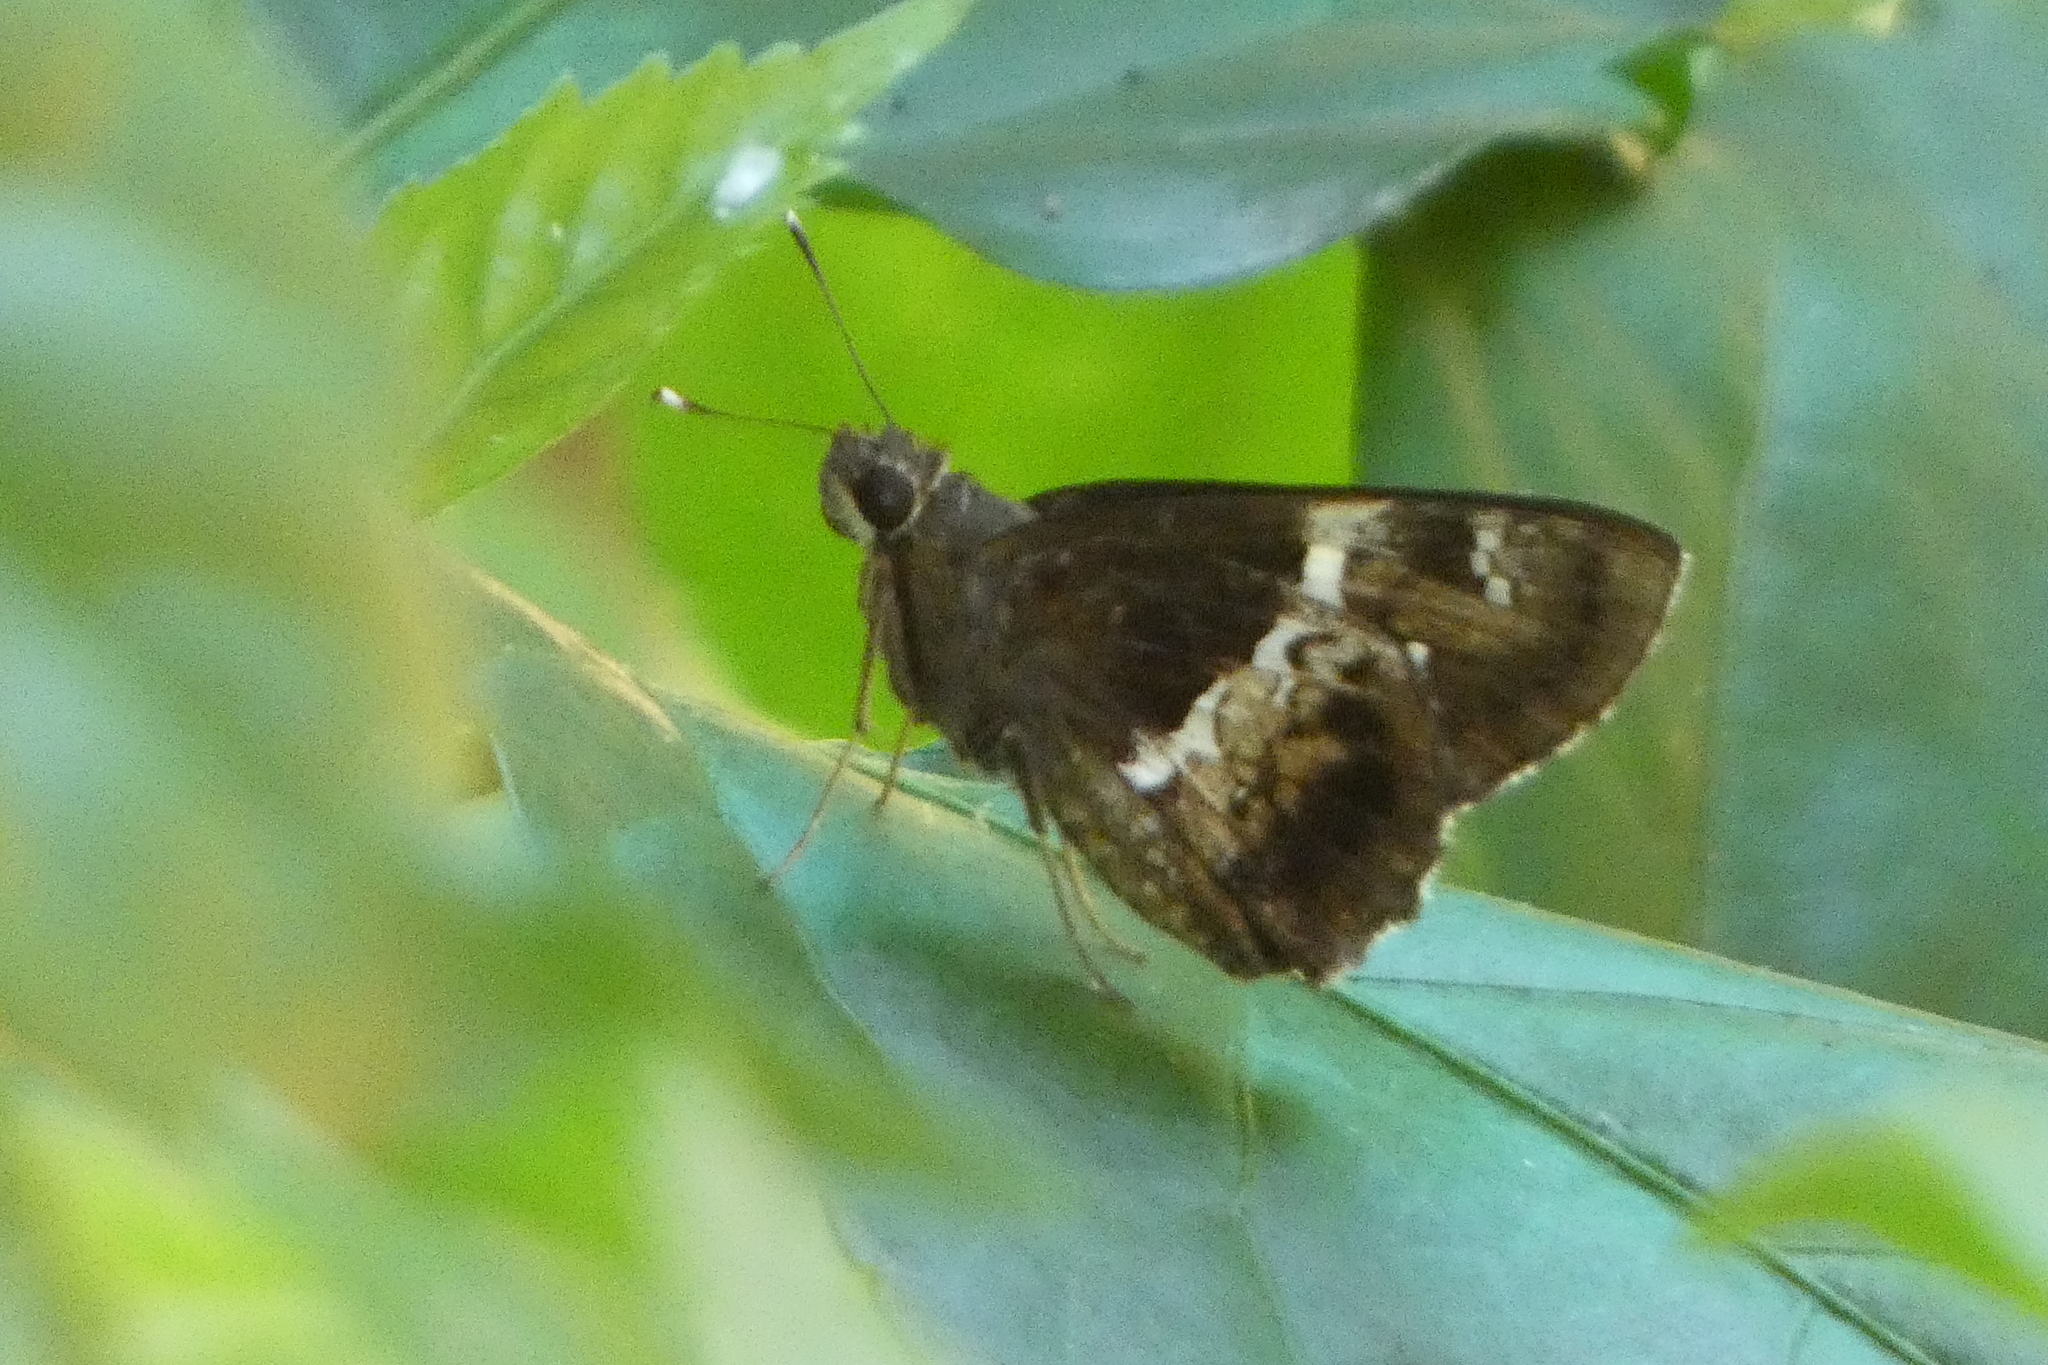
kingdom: Animalia
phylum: Arthropoda
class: Insecta
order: Lepidoptera
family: Hesperiidae
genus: Hyarotis
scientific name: Hyarotis adrastus
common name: Tree flitter
